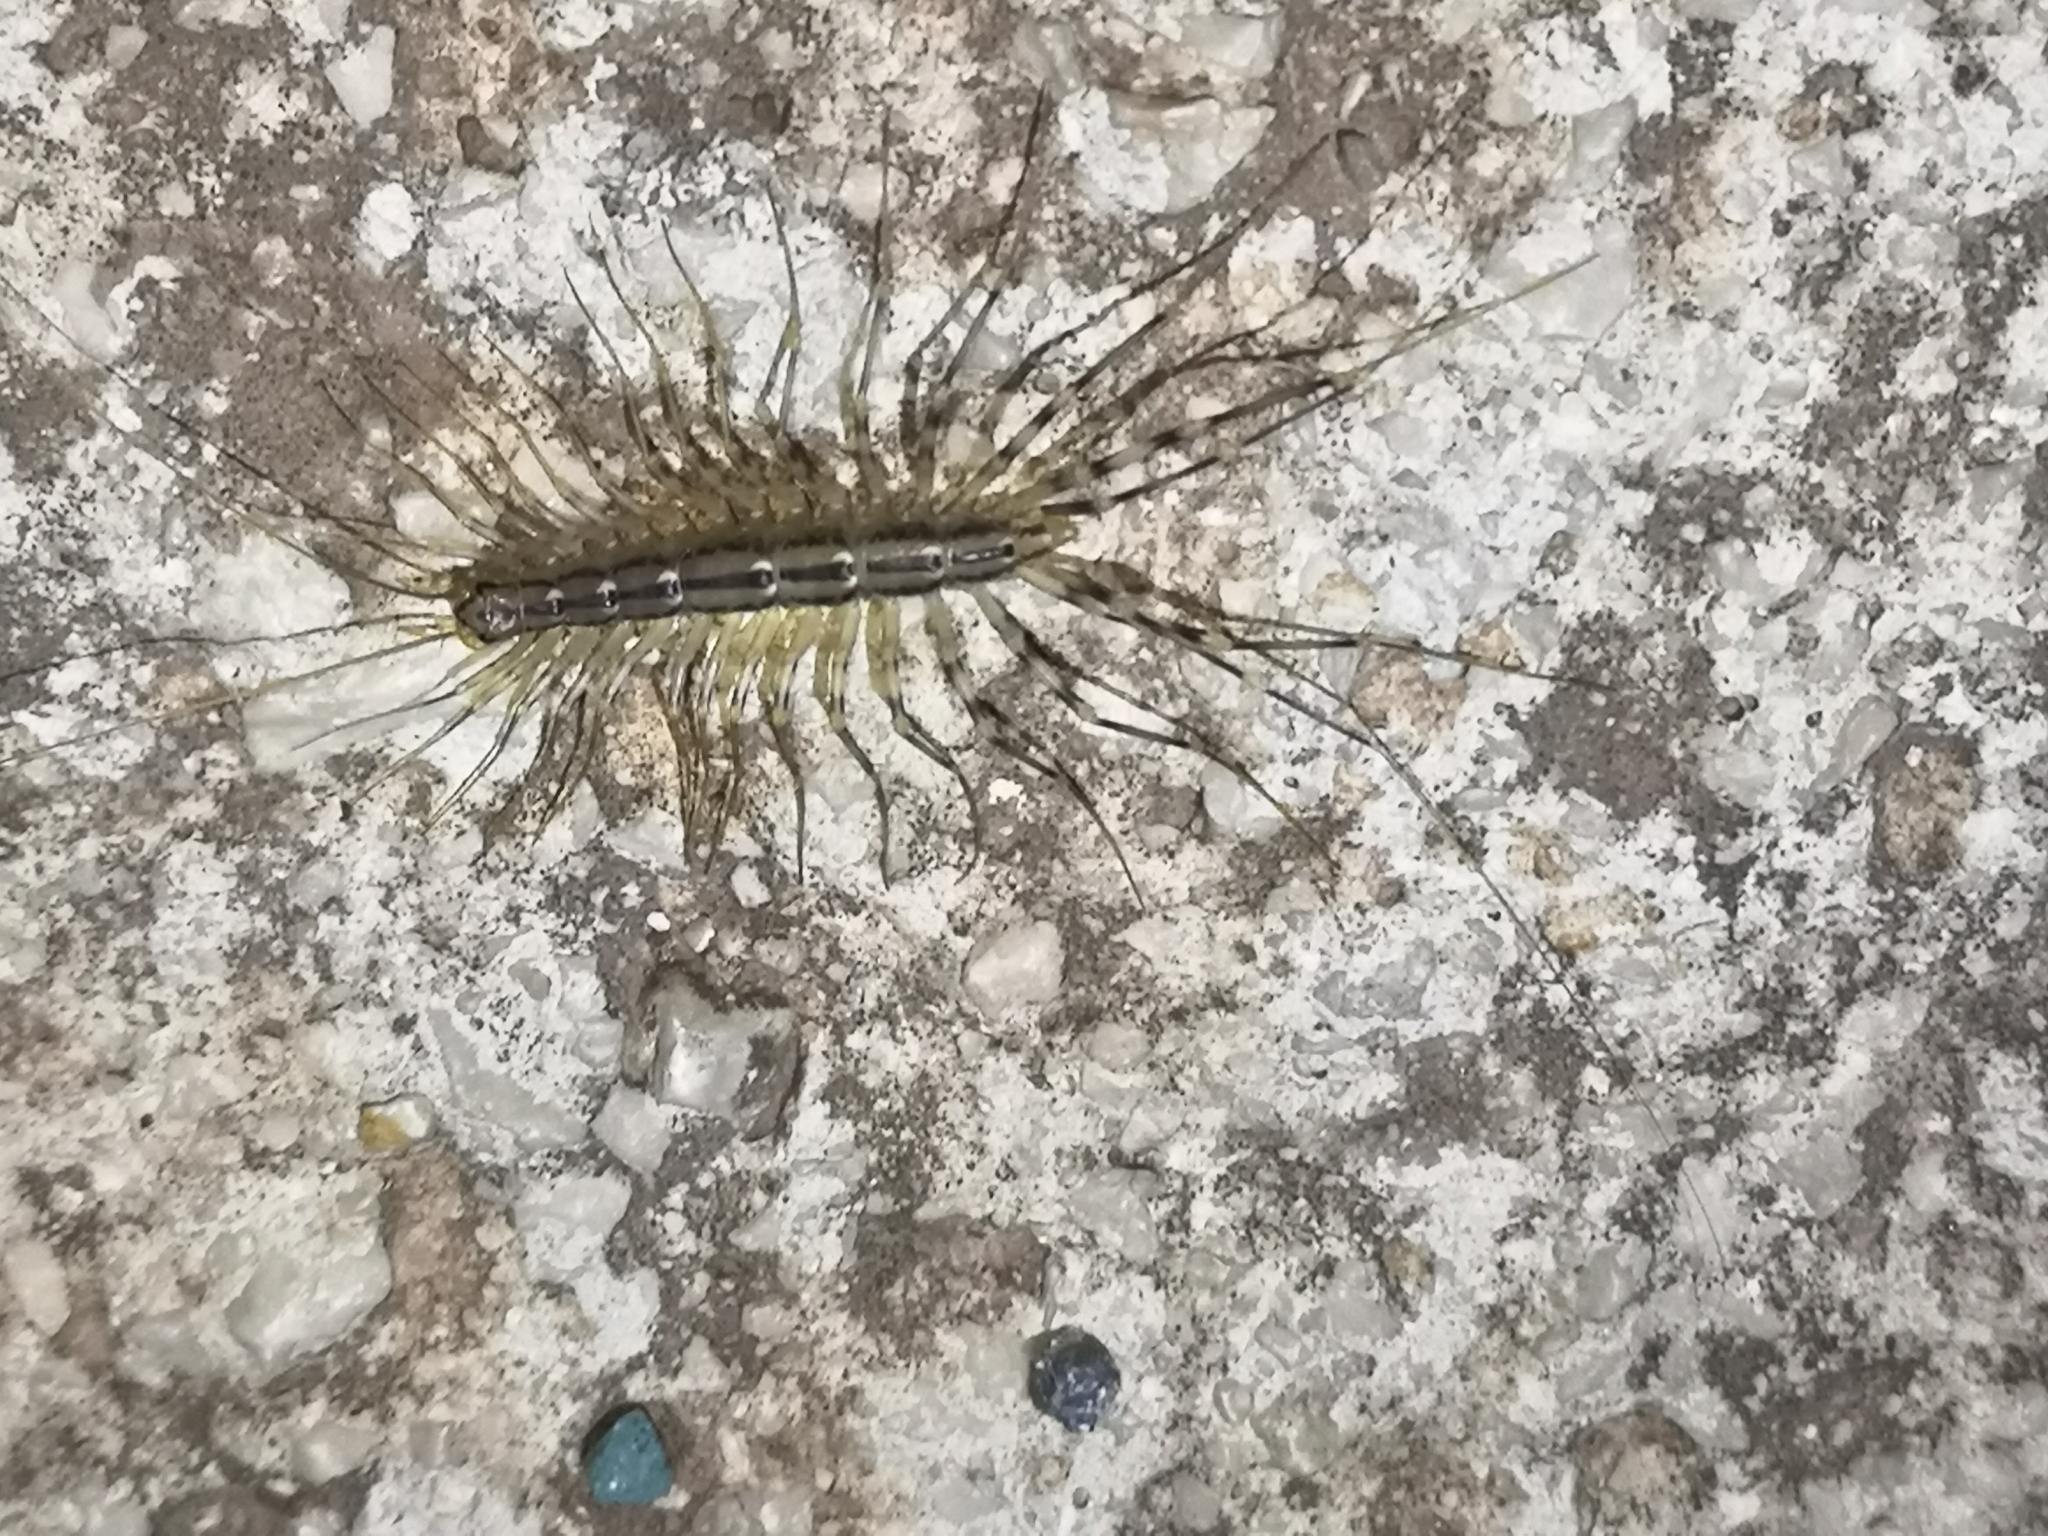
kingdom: Animalia
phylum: Arthropoda
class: Chilopoda
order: Scutigeromorpha
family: Scutigeridae
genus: Scutigera
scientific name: Scutigera coleoptrata
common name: House centipede
